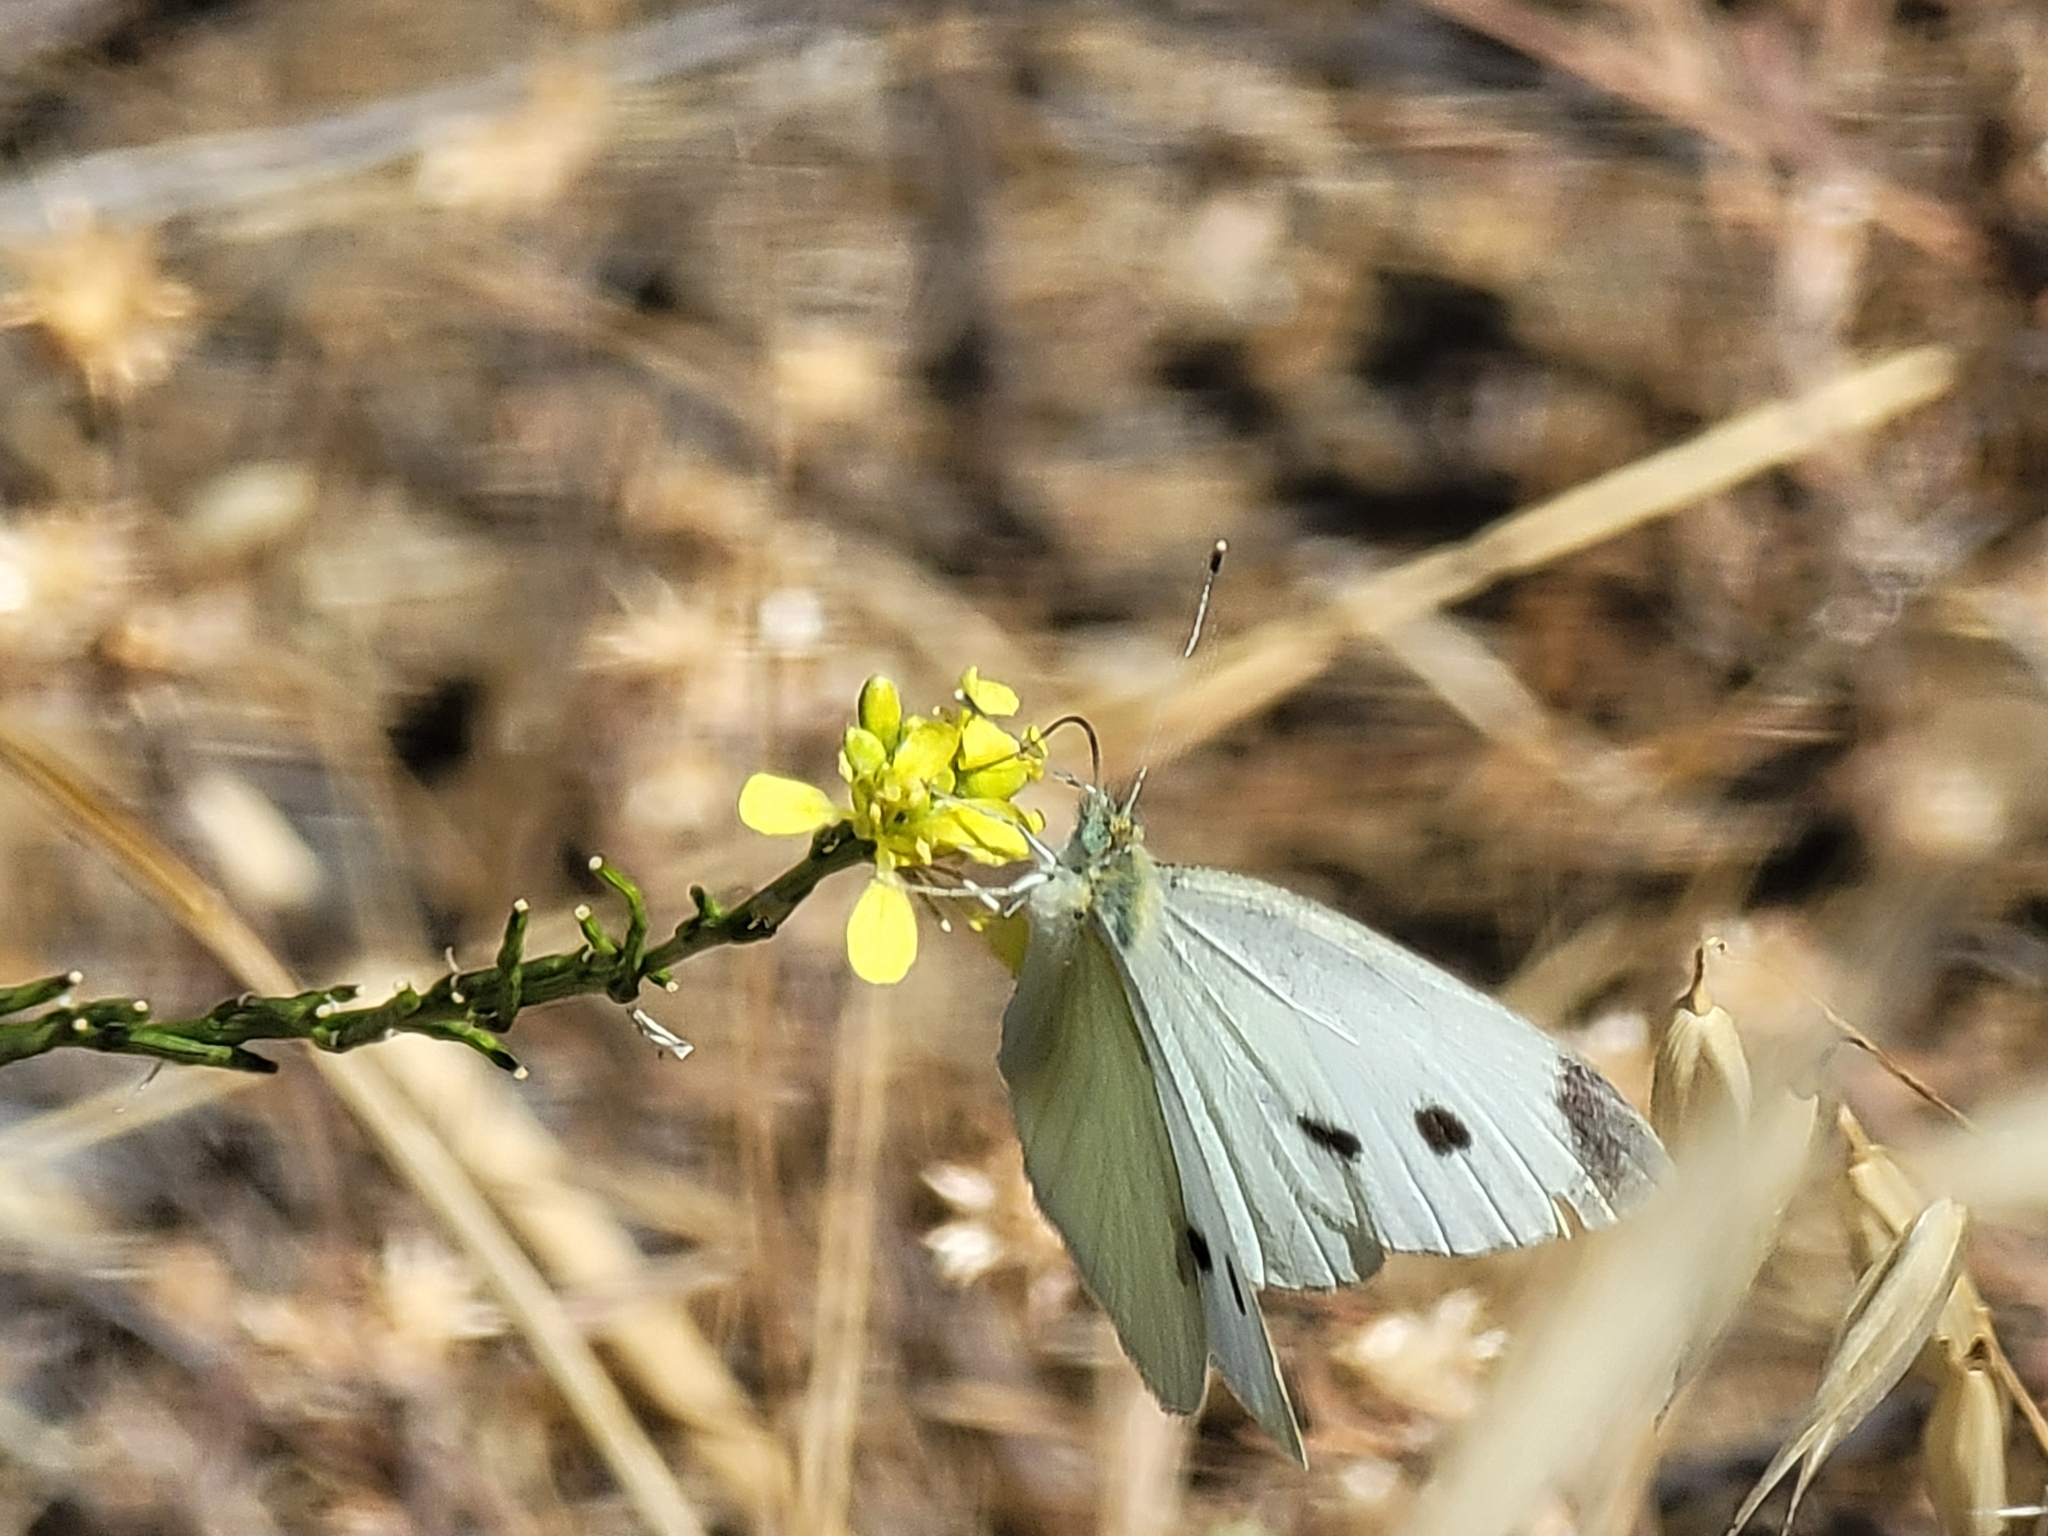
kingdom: Animalia
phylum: Arthropoda
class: Insecta
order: Lepidoptera
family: Pieridae
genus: Pieris
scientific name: Pieris rapae
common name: Small white
